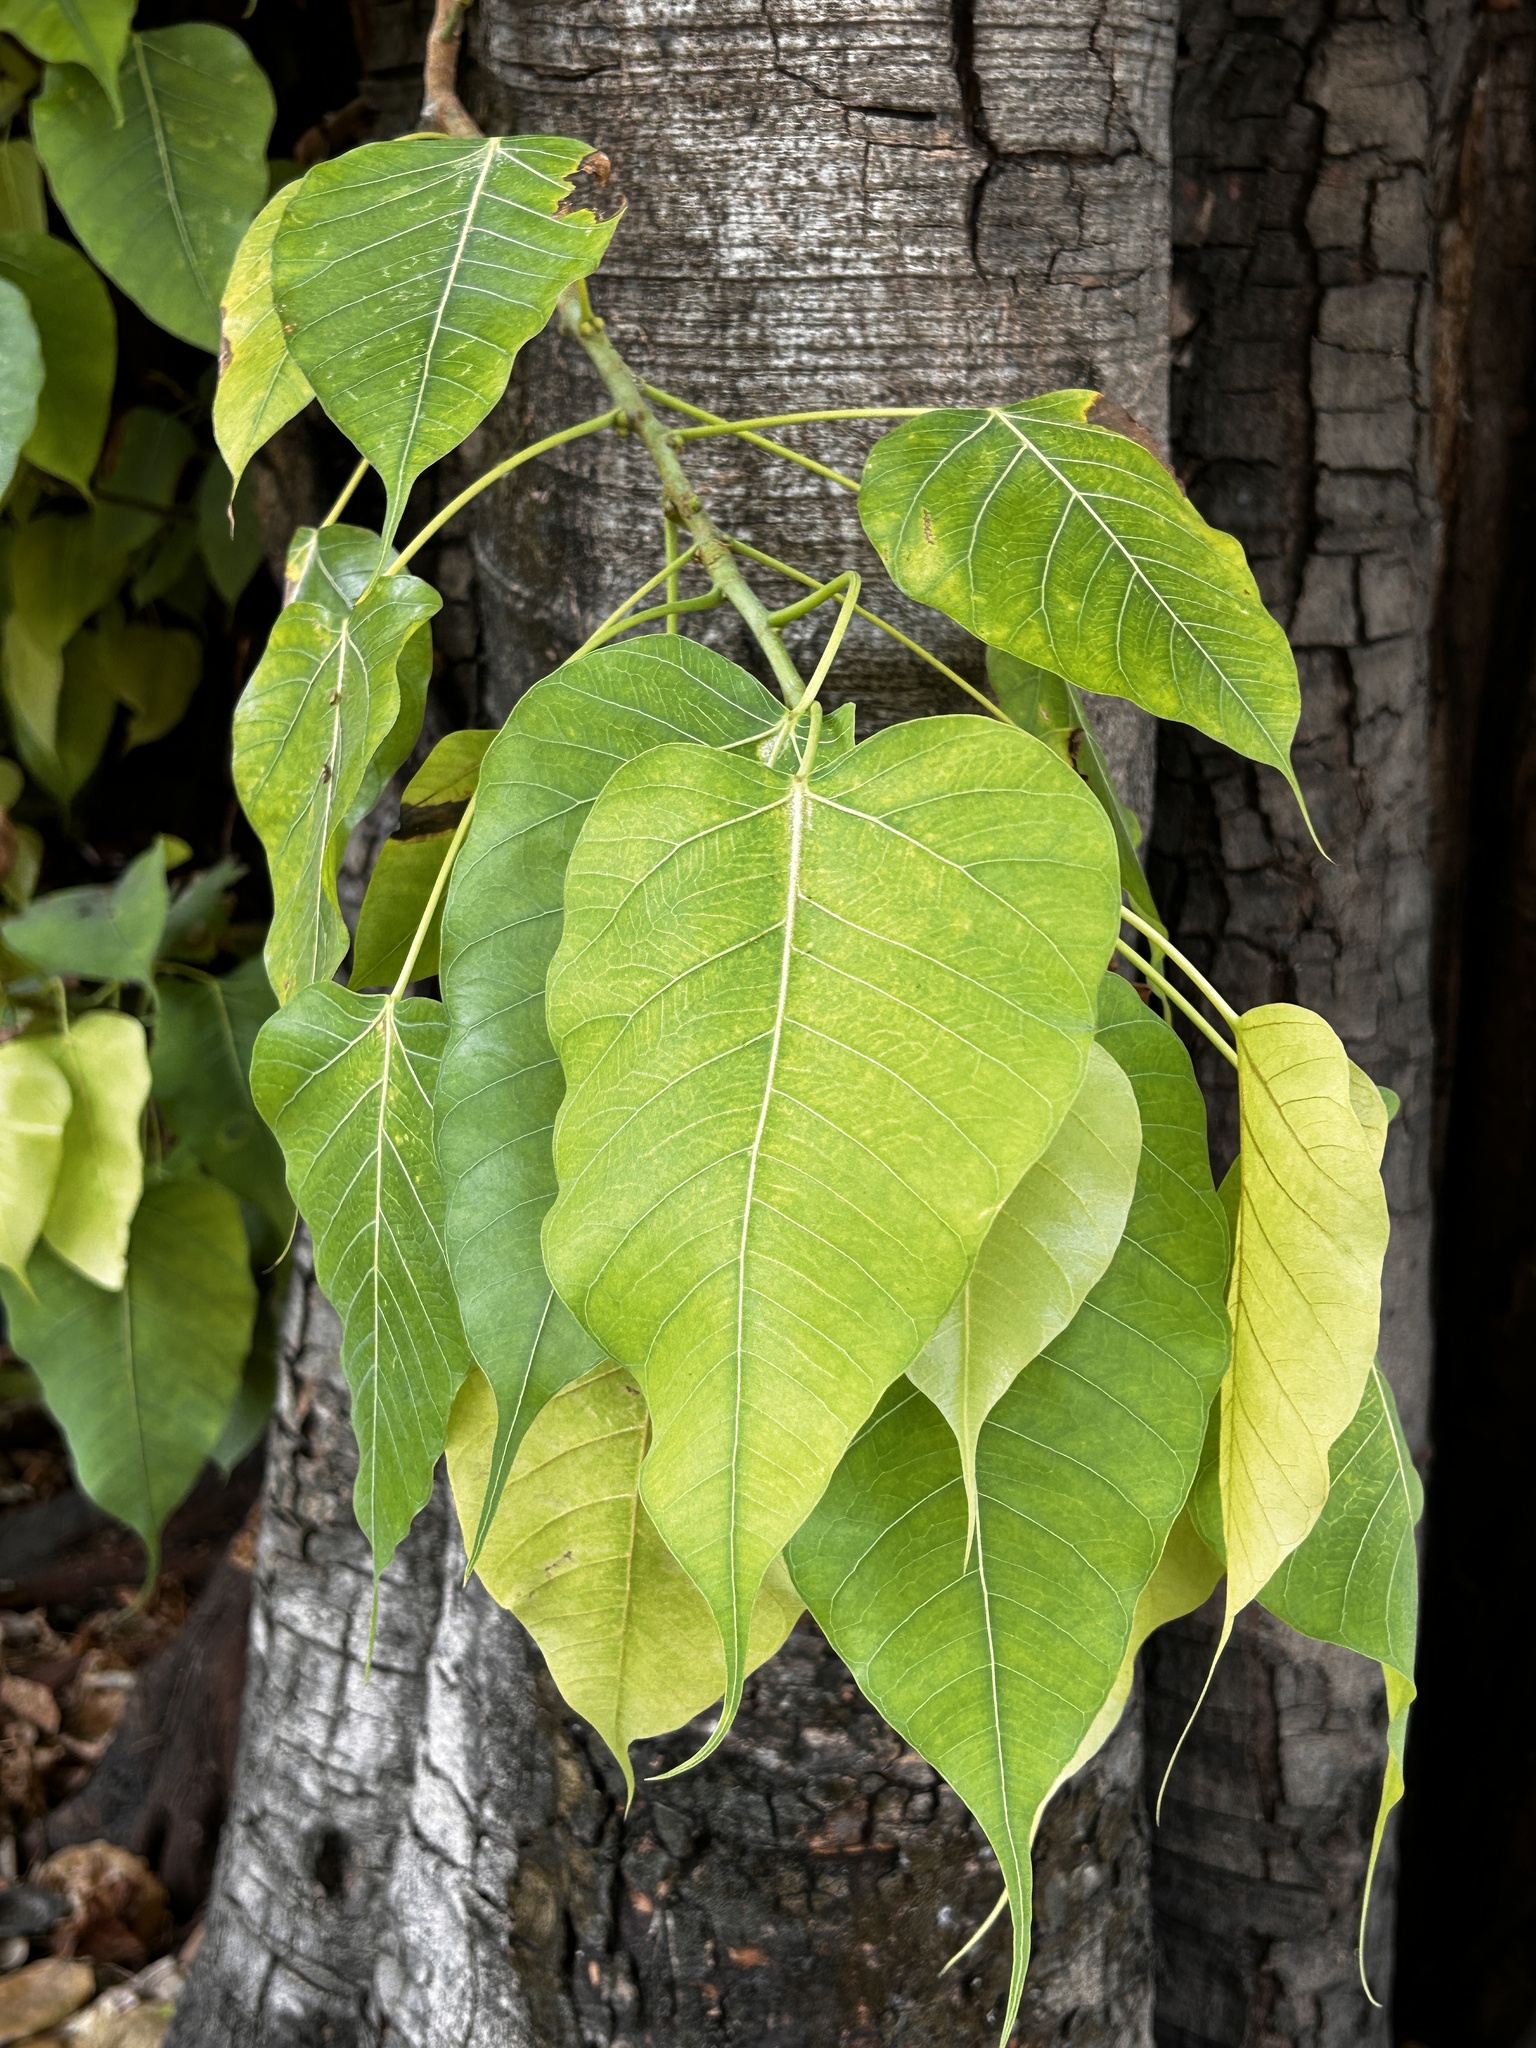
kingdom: Plantae
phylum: Tracheophyta
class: Magnoliopsida
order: Rosales
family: Moraceae
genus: Ficus
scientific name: Ficus religiosa
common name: Bodhi tree
